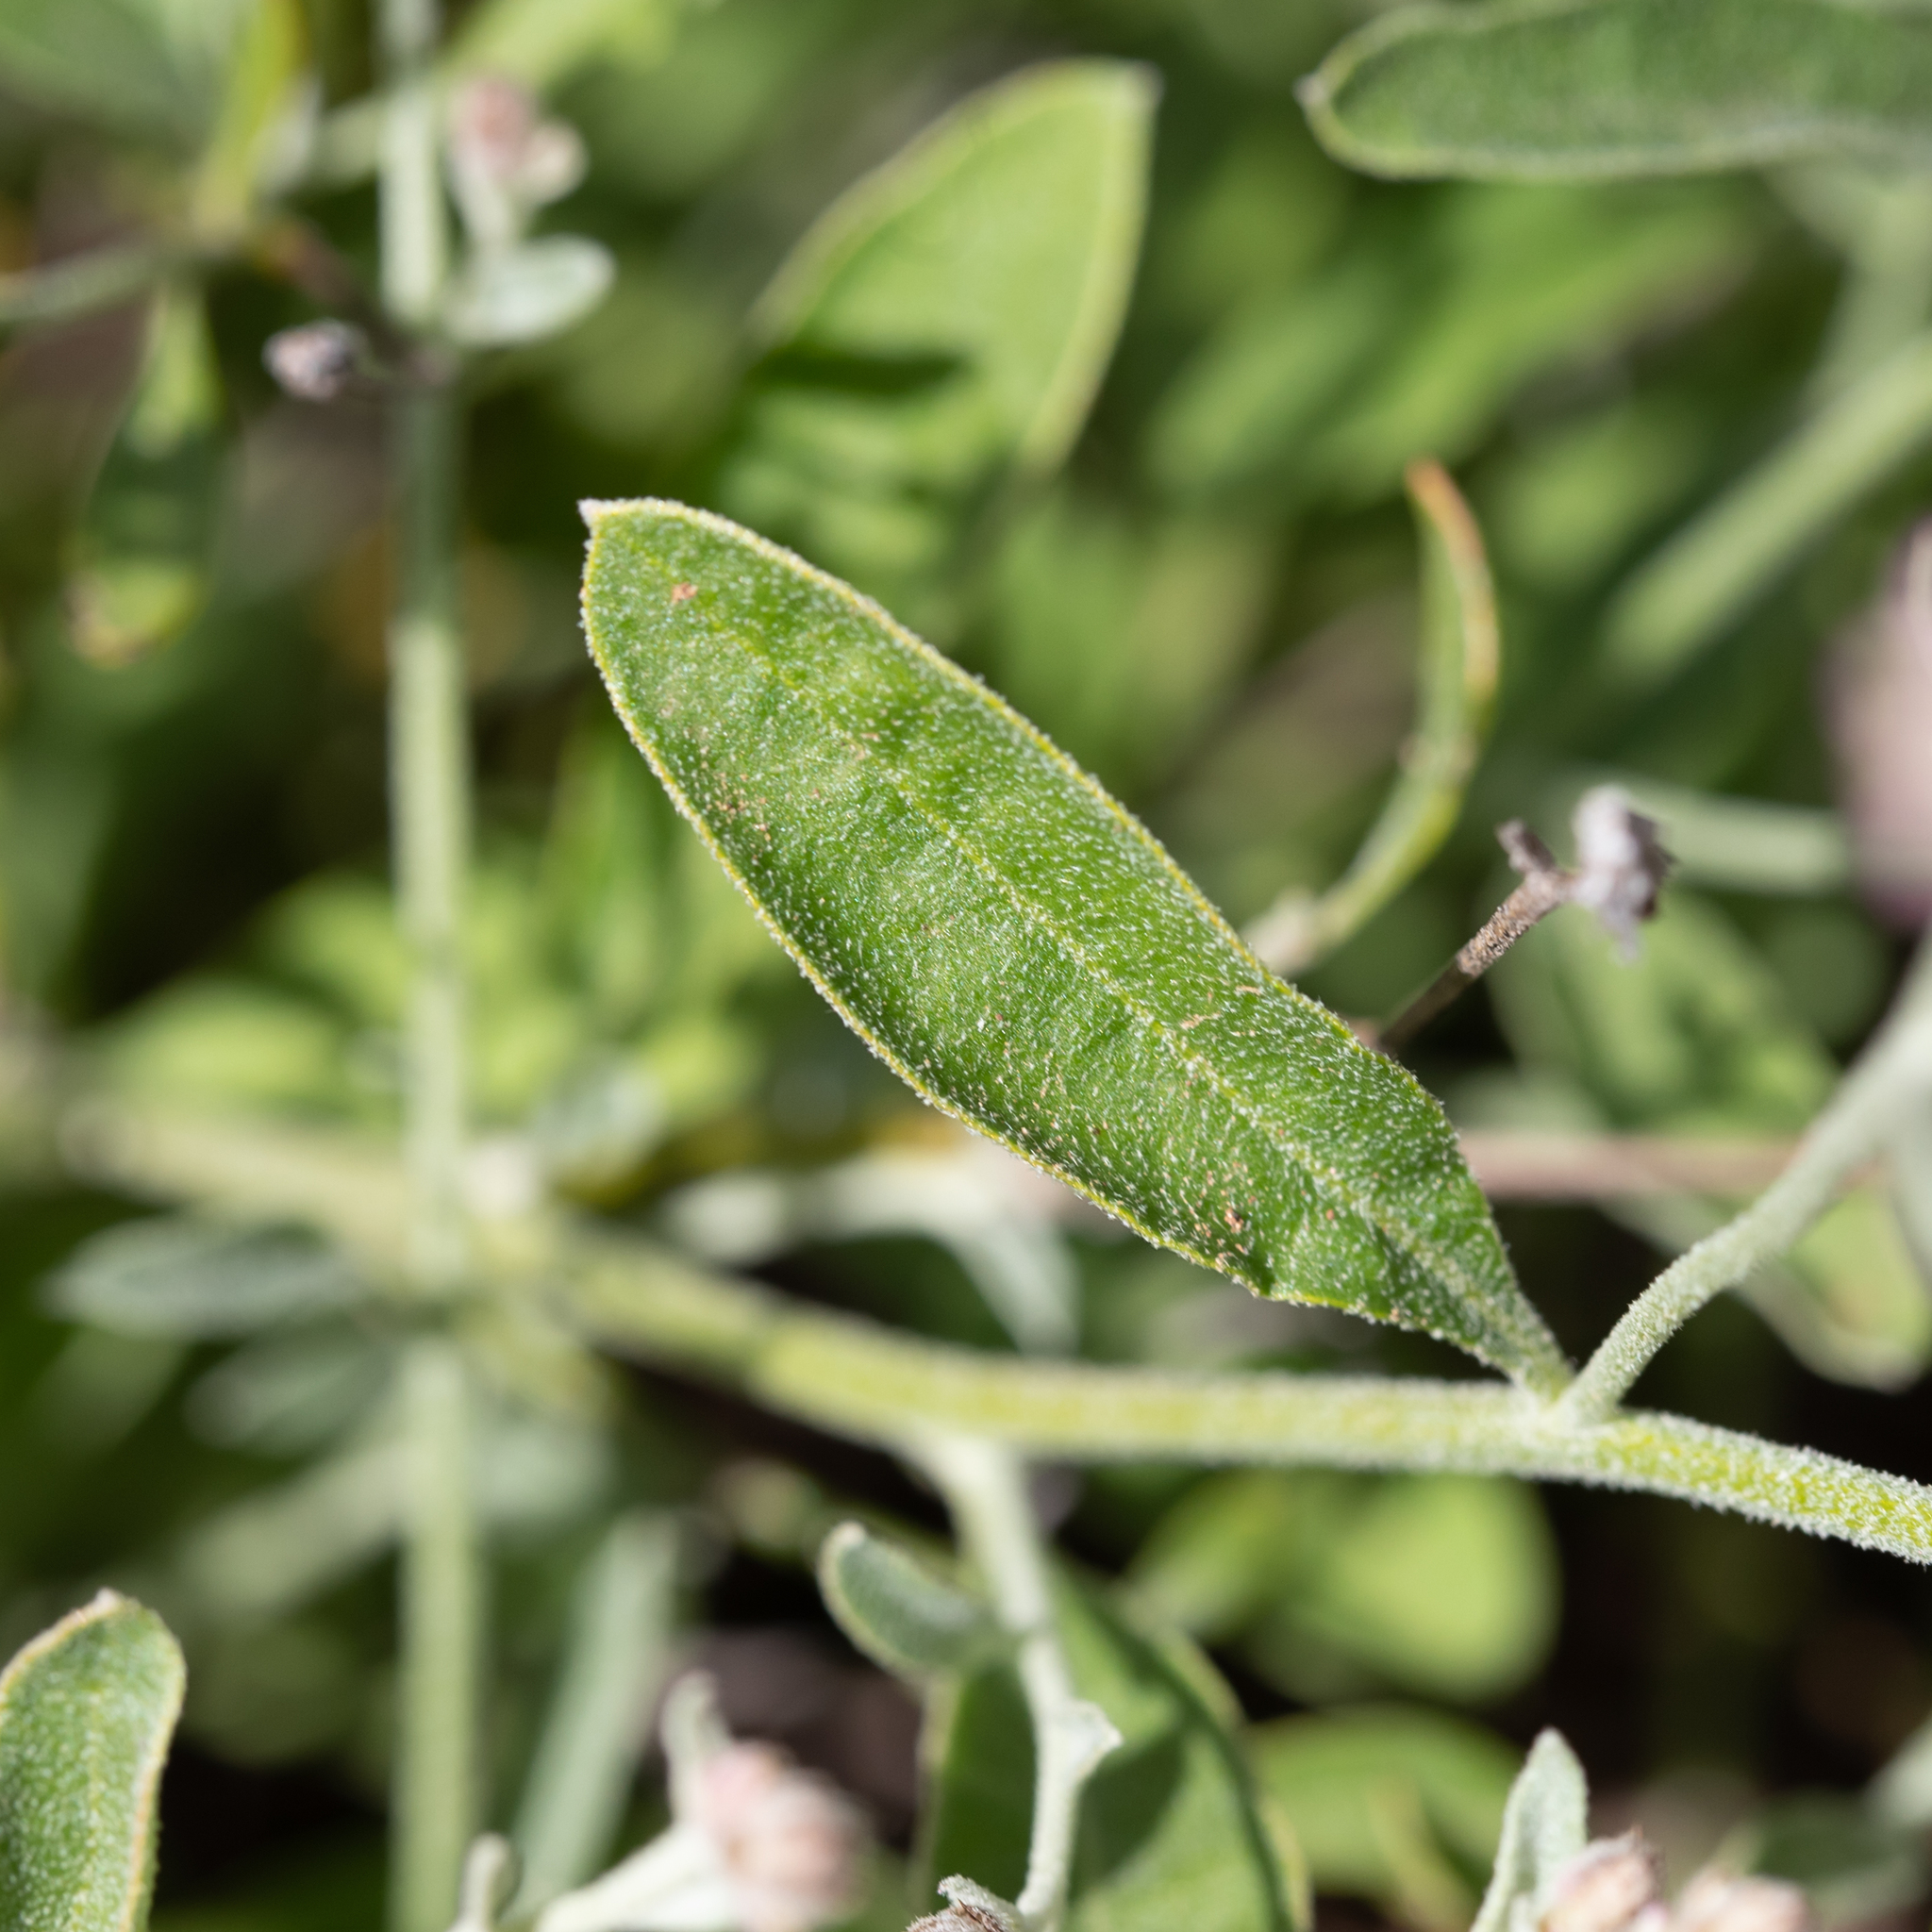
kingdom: Plantae
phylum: Tracheophyta
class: Magnoliopsida
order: Caryophyllales
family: Amaranthaceae
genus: Ptilotus
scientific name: Ptilotus parviflorus
